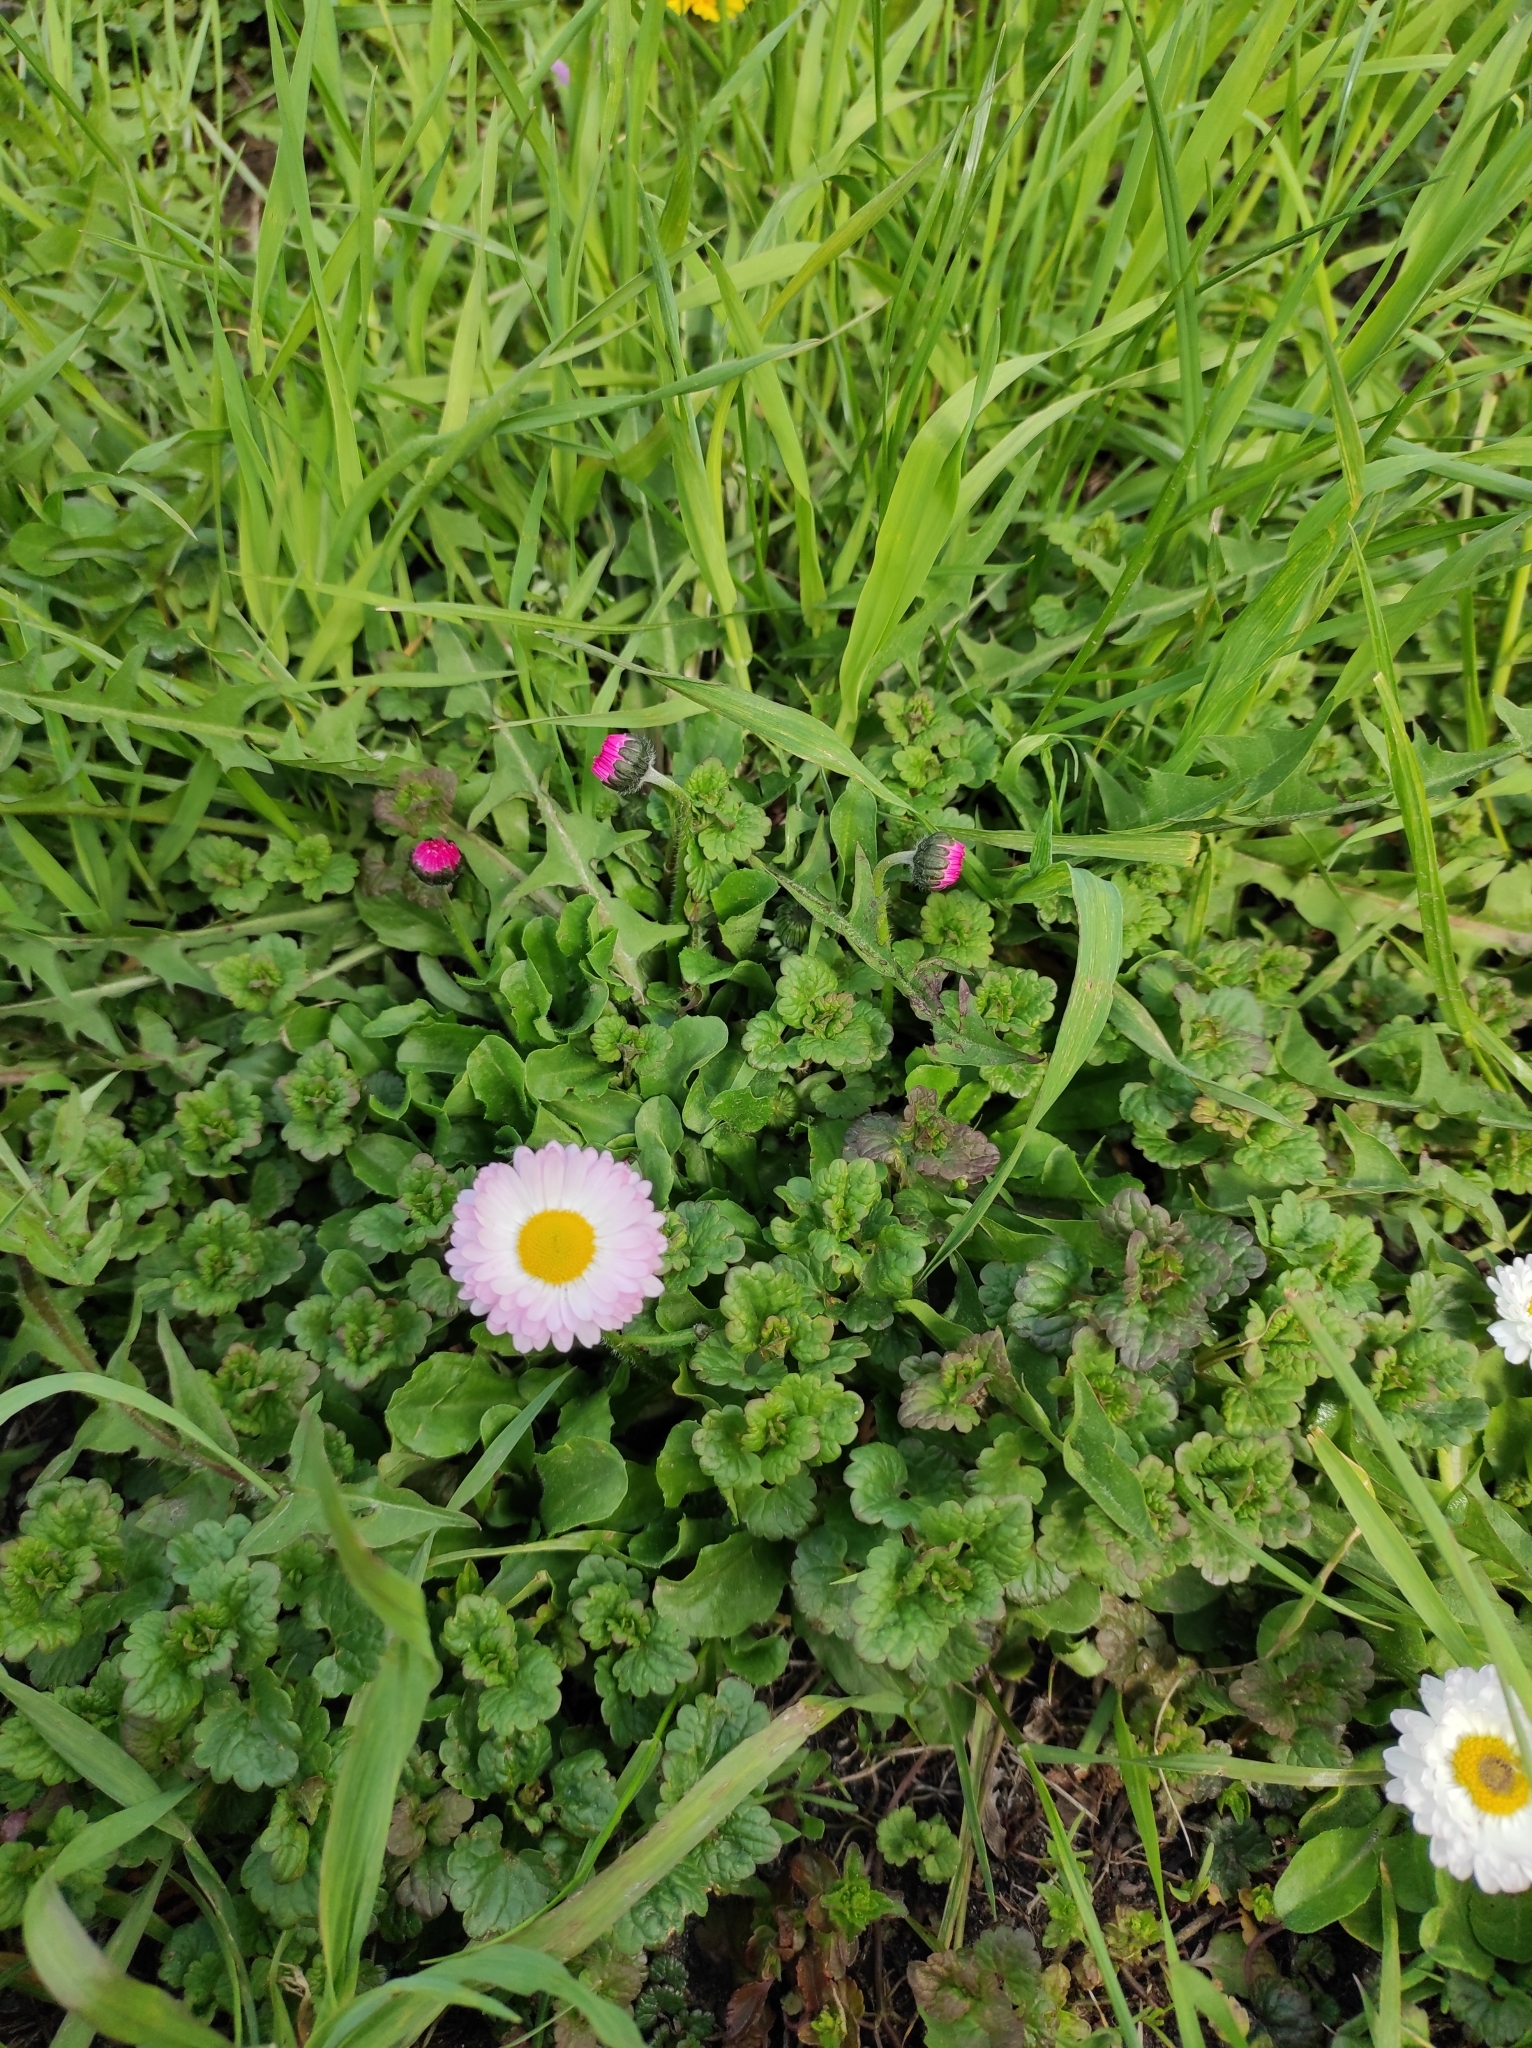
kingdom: Plantae
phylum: Tracheophyta
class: Magnoliopsida
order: Asterales
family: Asteraceae
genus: Bellis
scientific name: Bellis perennis
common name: Lawndaisy
